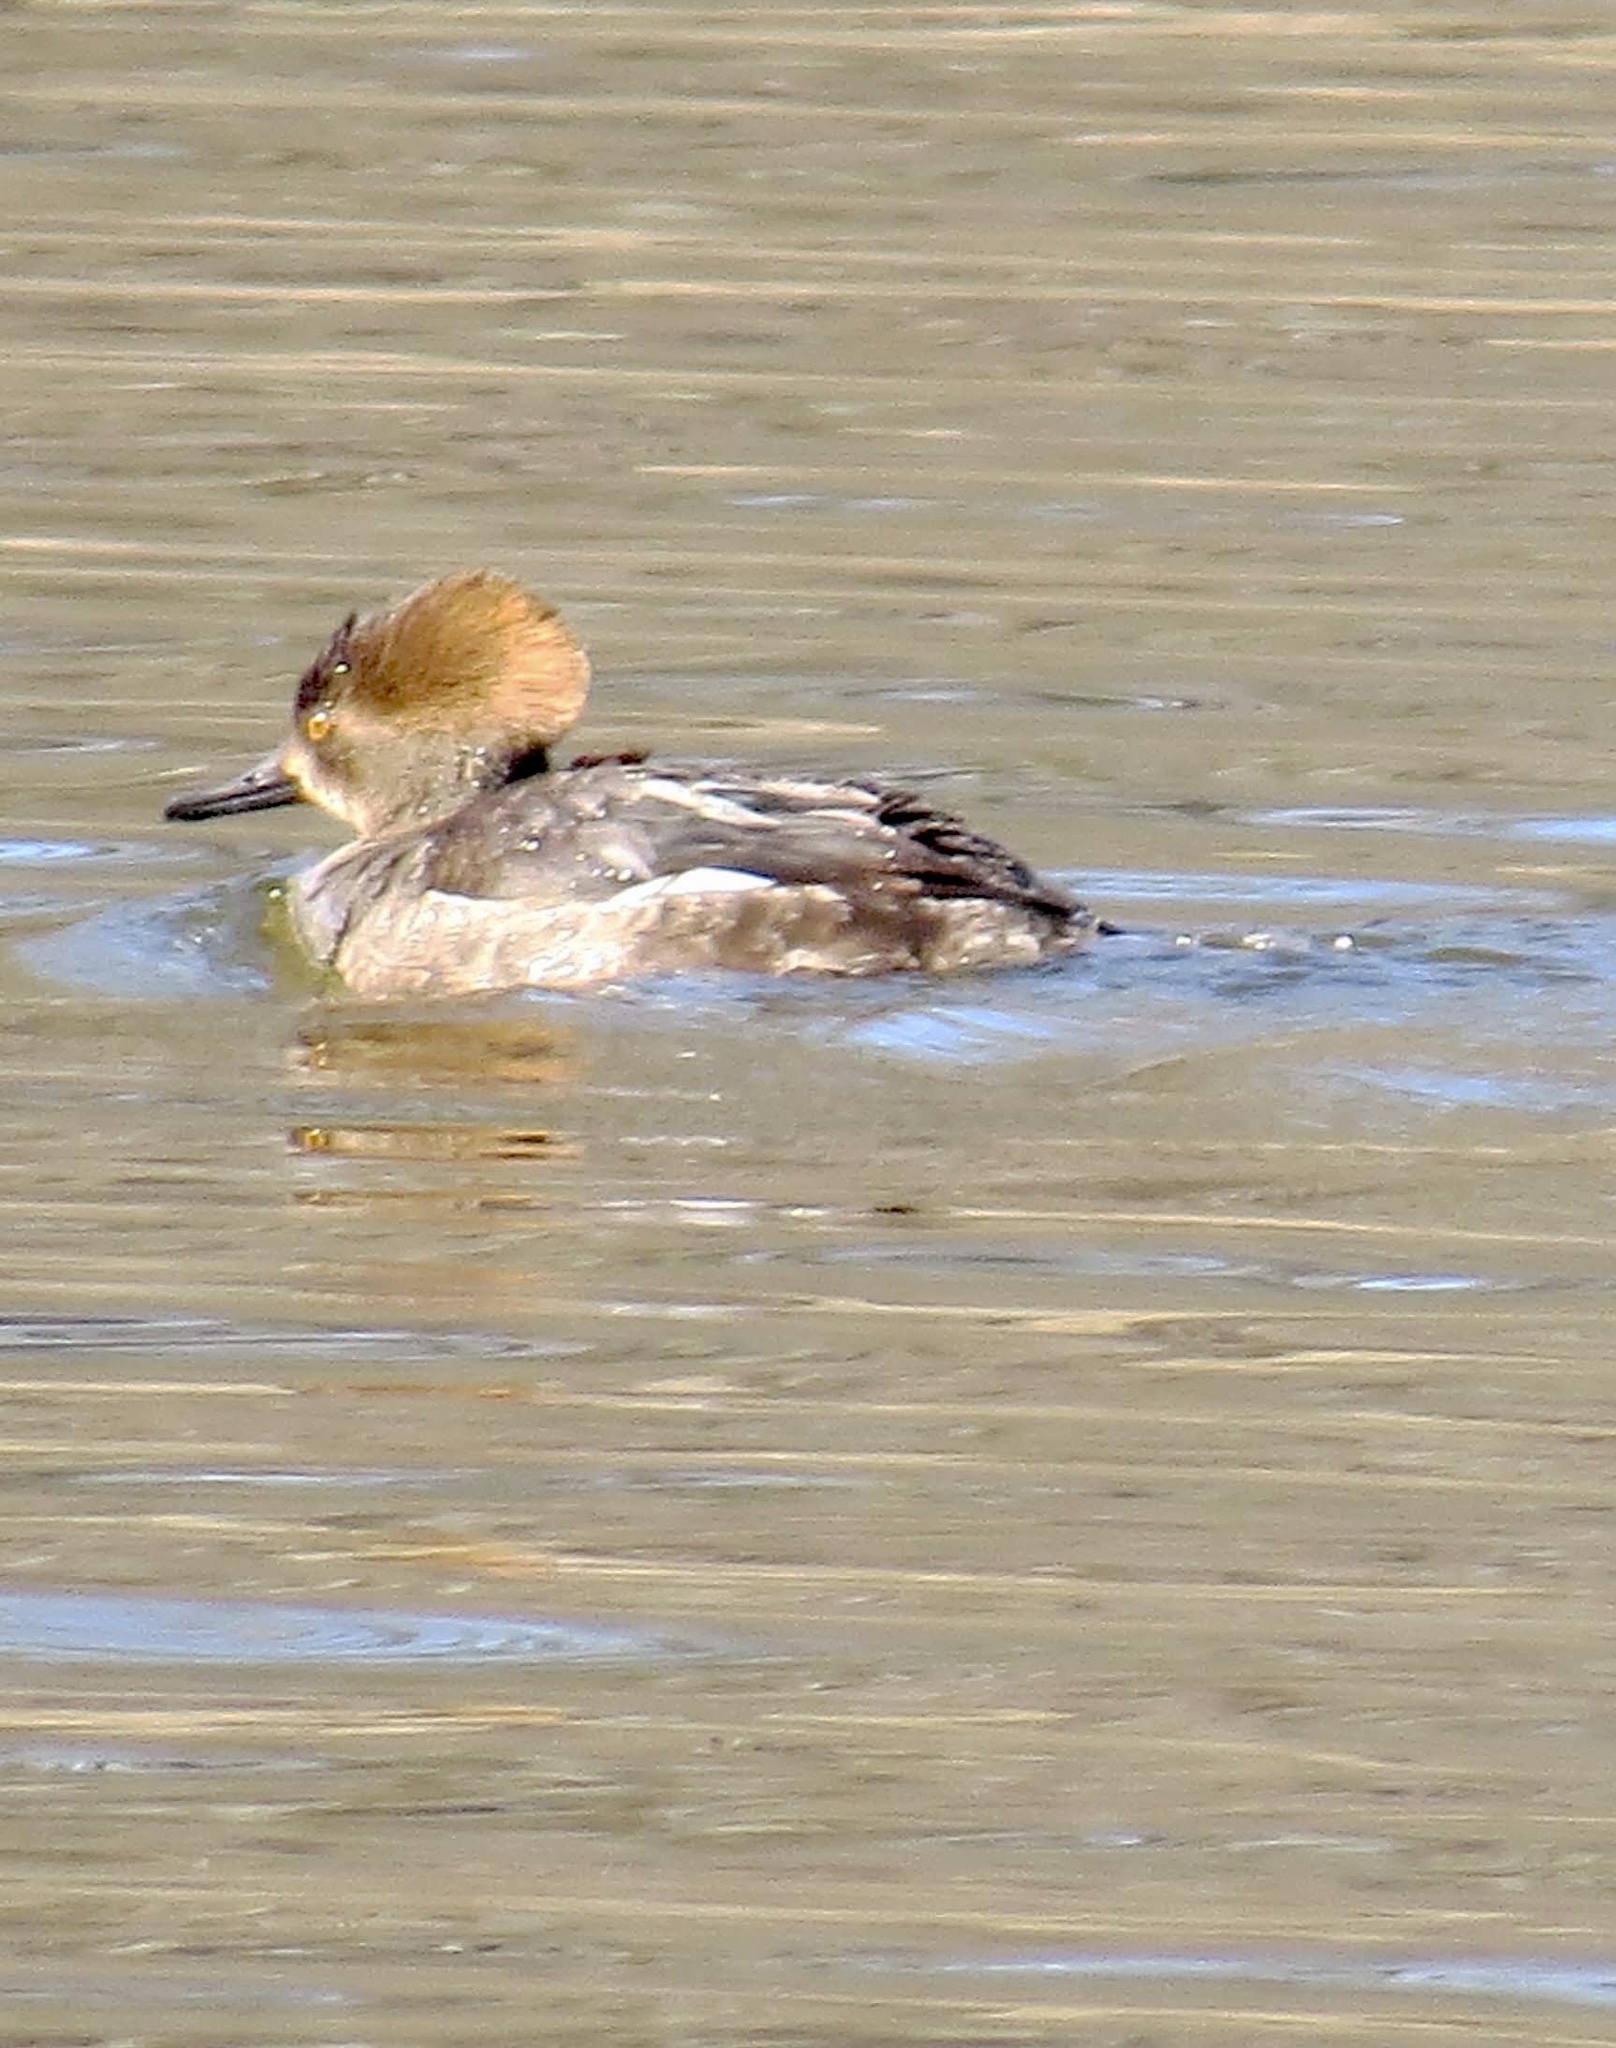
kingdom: Animalia
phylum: Chordata
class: Aves
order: Anseriformes
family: Anatidae
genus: Lophodytes
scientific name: Lophodytes cucullatus
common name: Hooded merganser
